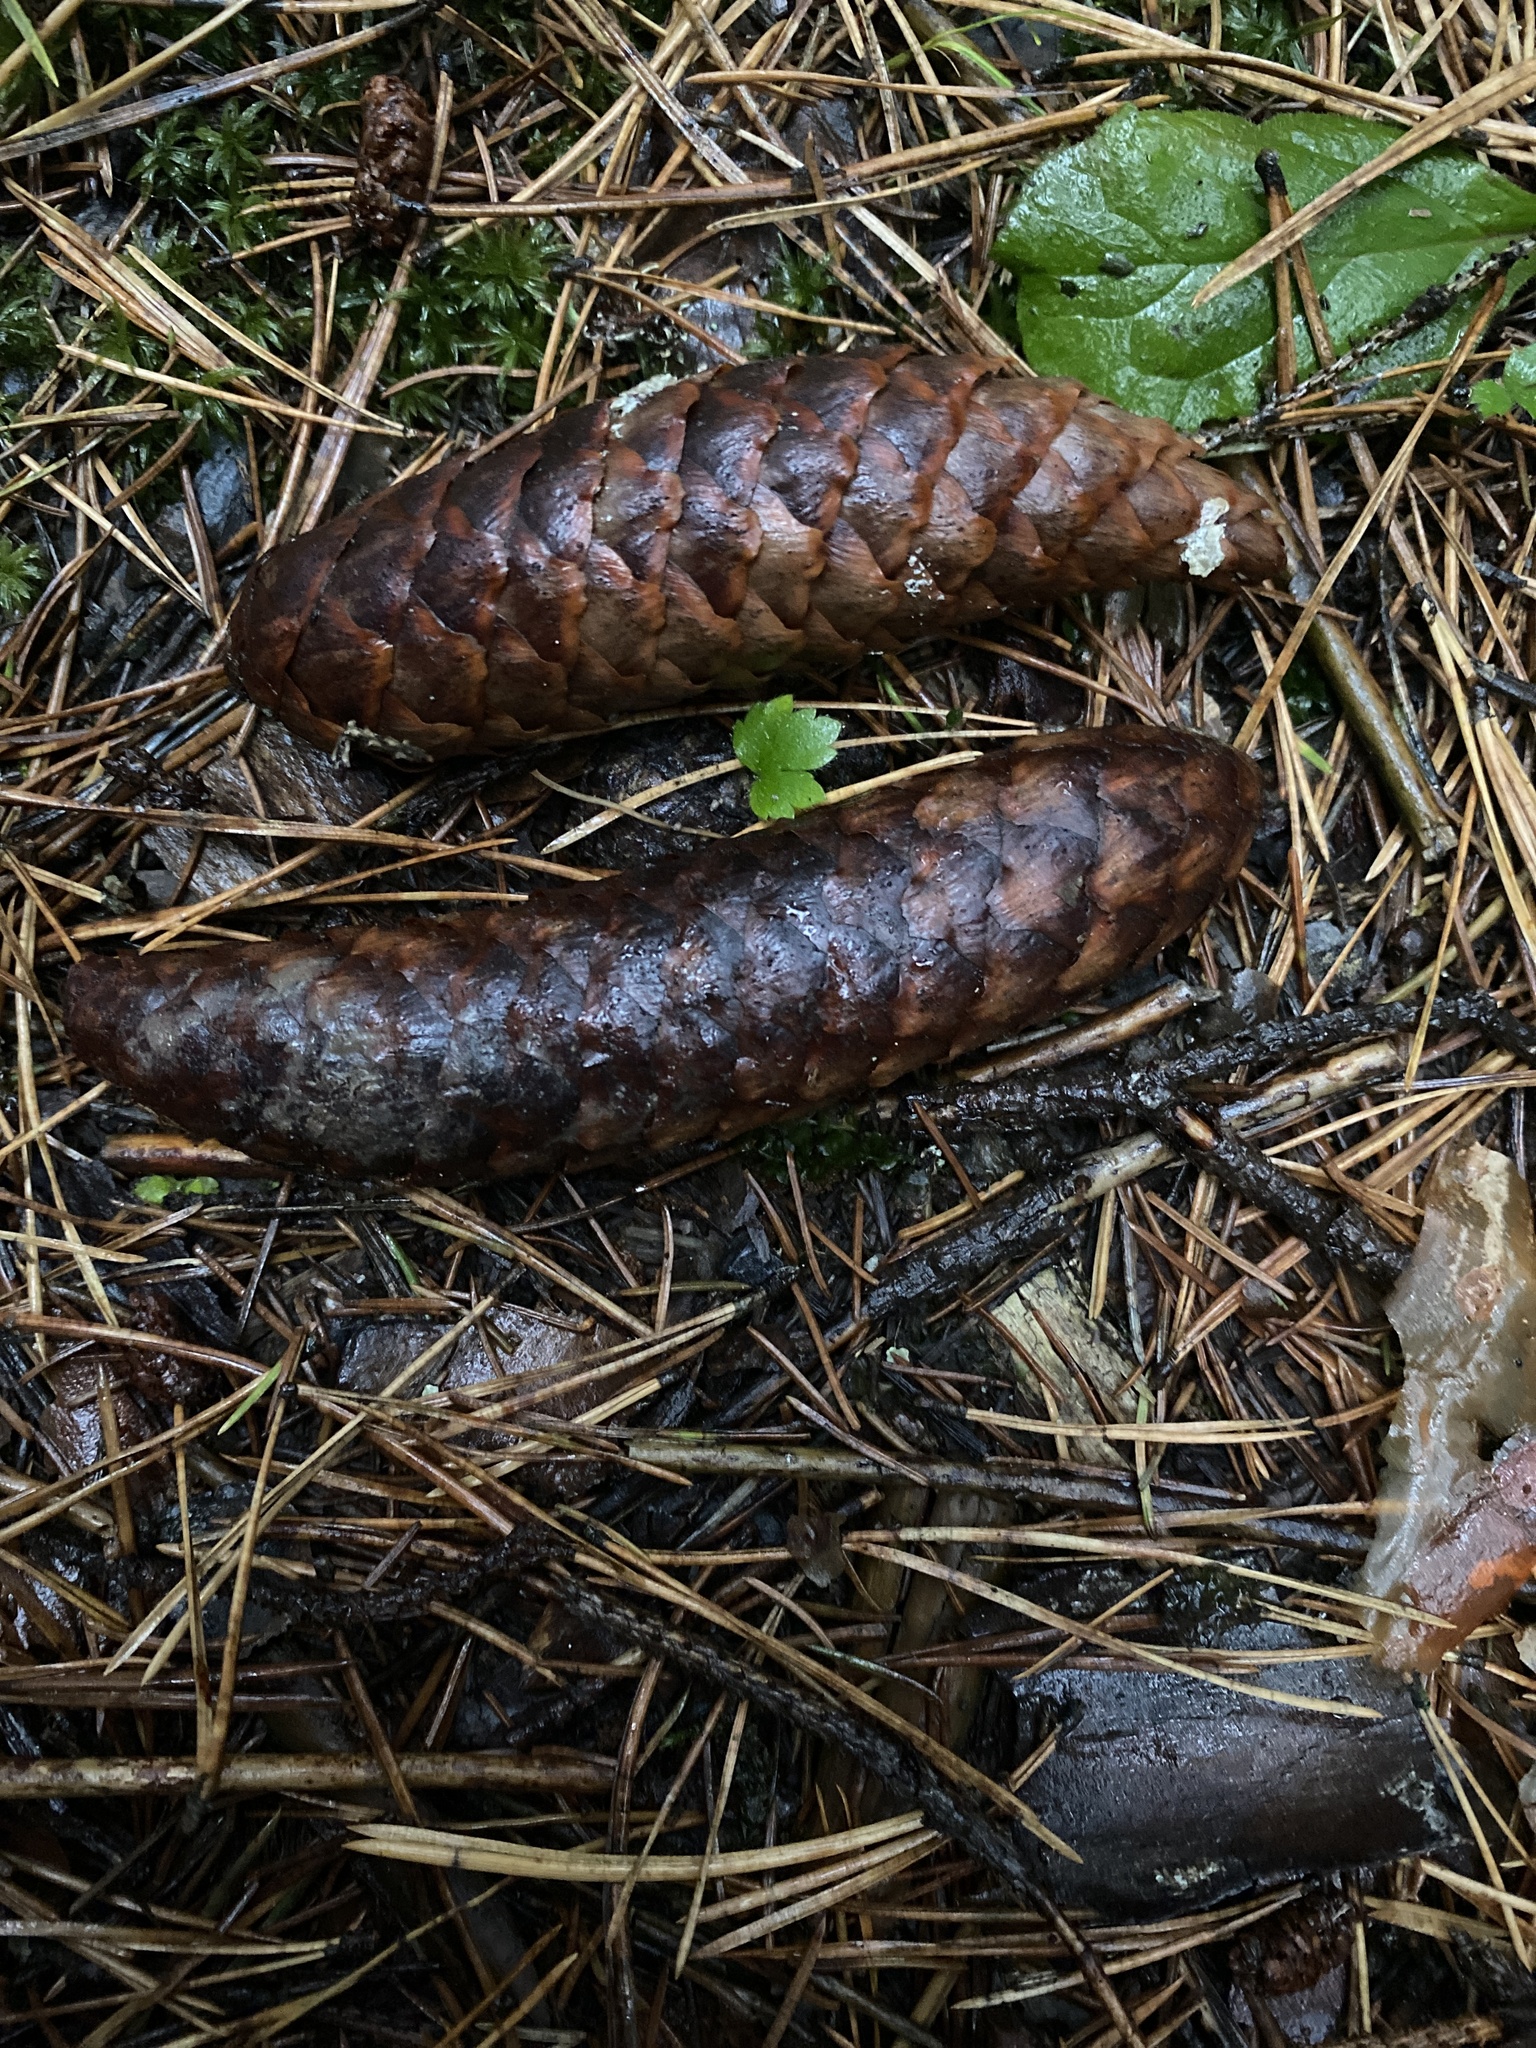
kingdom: Plantae
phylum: Tracheophyta
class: Pinopsida
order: Pinales
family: Pinaceae
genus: Picea
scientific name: Picea abies
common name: Norway spruce
